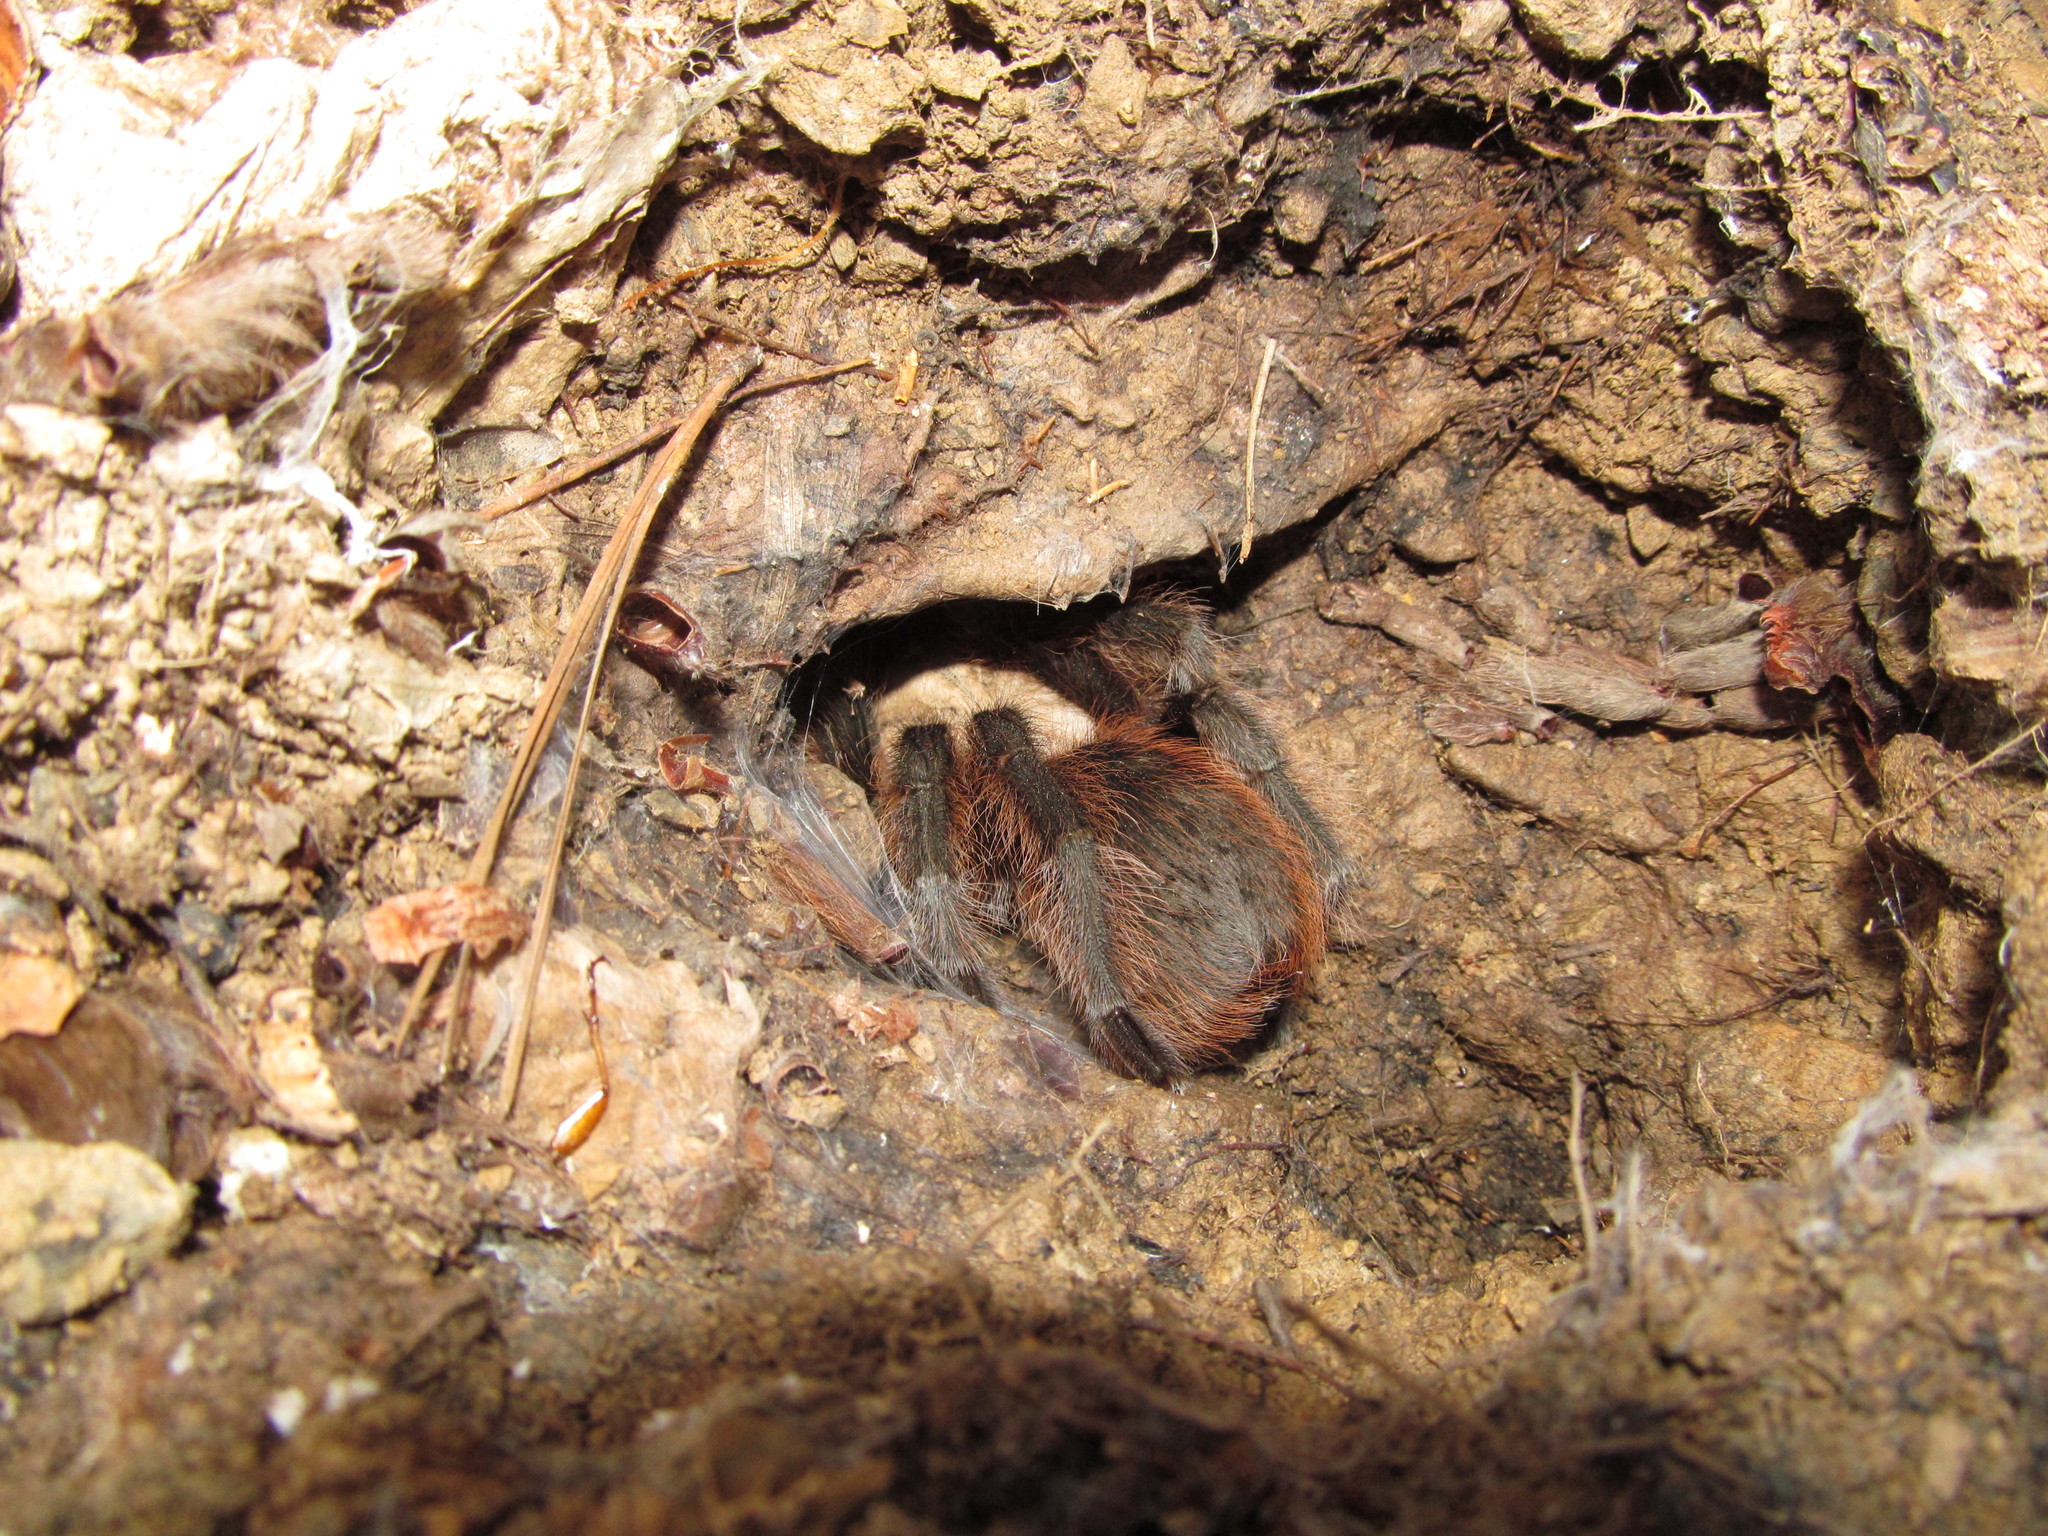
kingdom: Animalia
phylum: Arthropoda
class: Arachnida
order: Araneae
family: Theraphosidae
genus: Aphonopelma
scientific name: Aphonopelma hentzi
